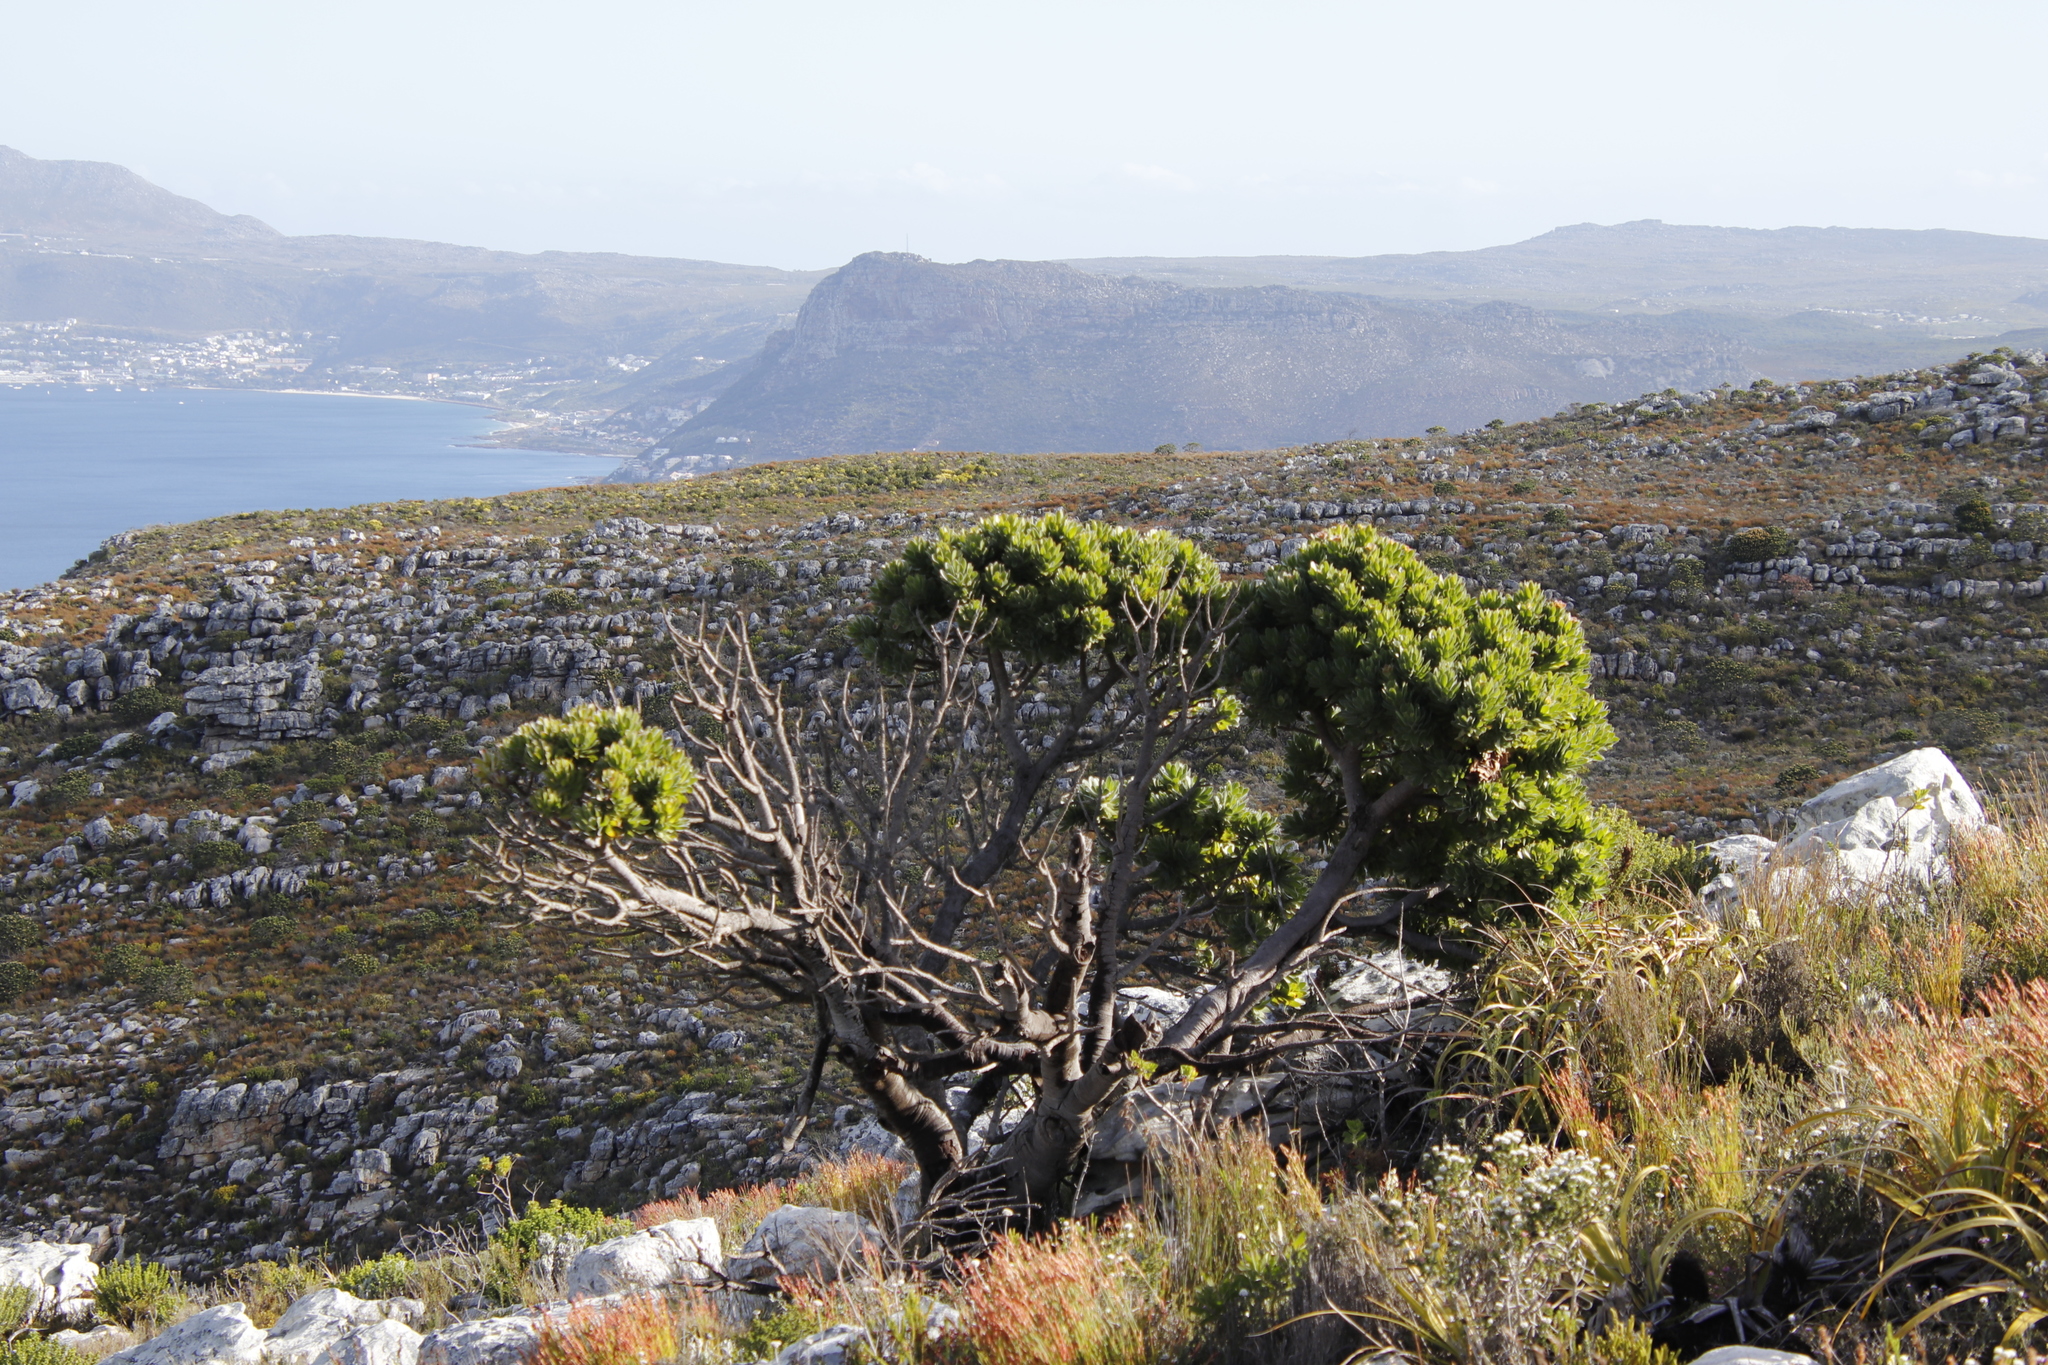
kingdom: Plantae
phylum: Tracheophyta
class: Magnoliopsida
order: Proteales
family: Proteaceae
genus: Mimetes
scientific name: Mimetes fimbriifolius
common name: Fringed bottlebrush
